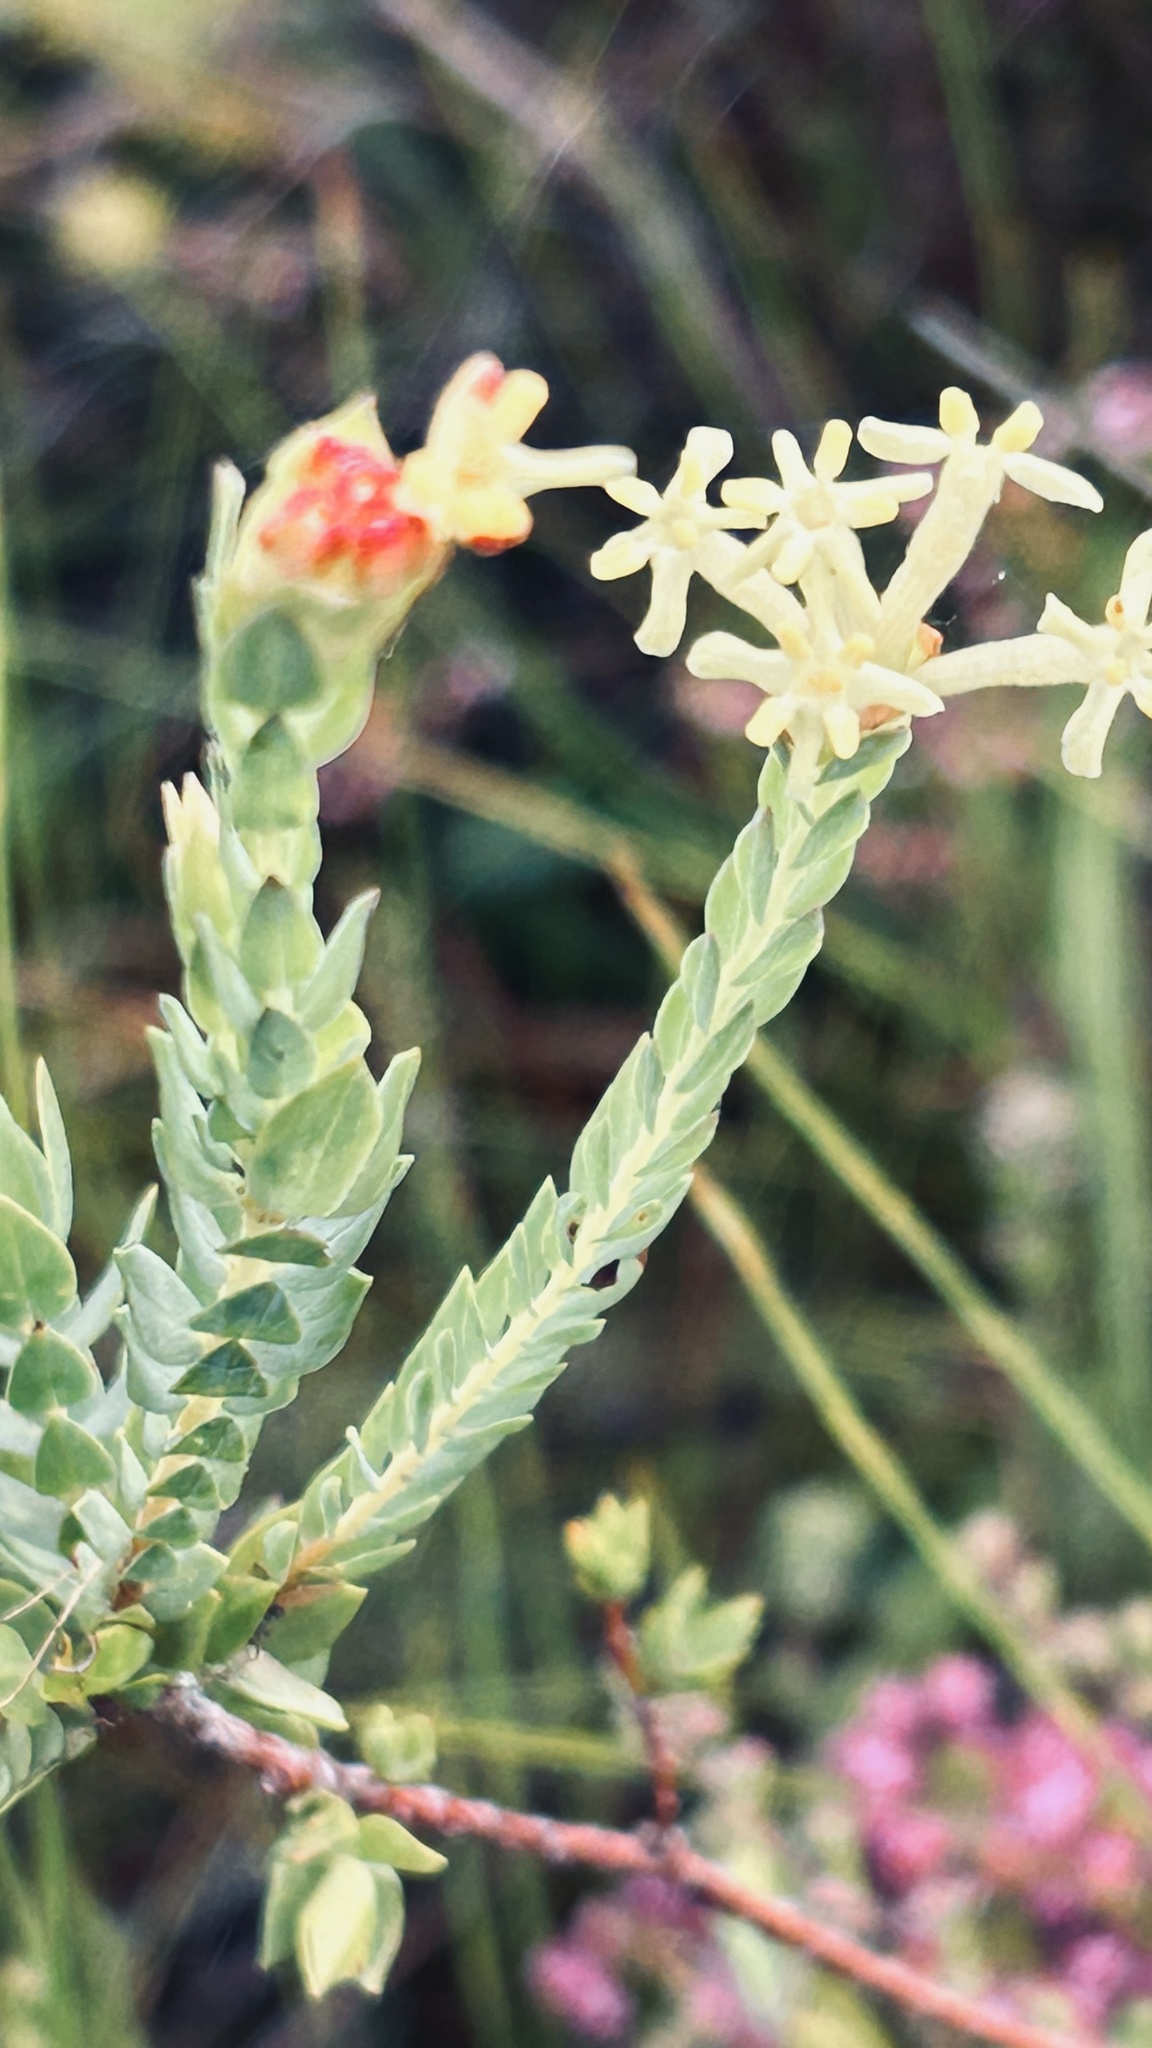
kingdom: Plantae
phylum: Tracheophyta
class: Magnoliopsida
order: Malvales
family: Thymelaeaceae
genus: Gnidia
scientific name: Gnidia oppositifolia
